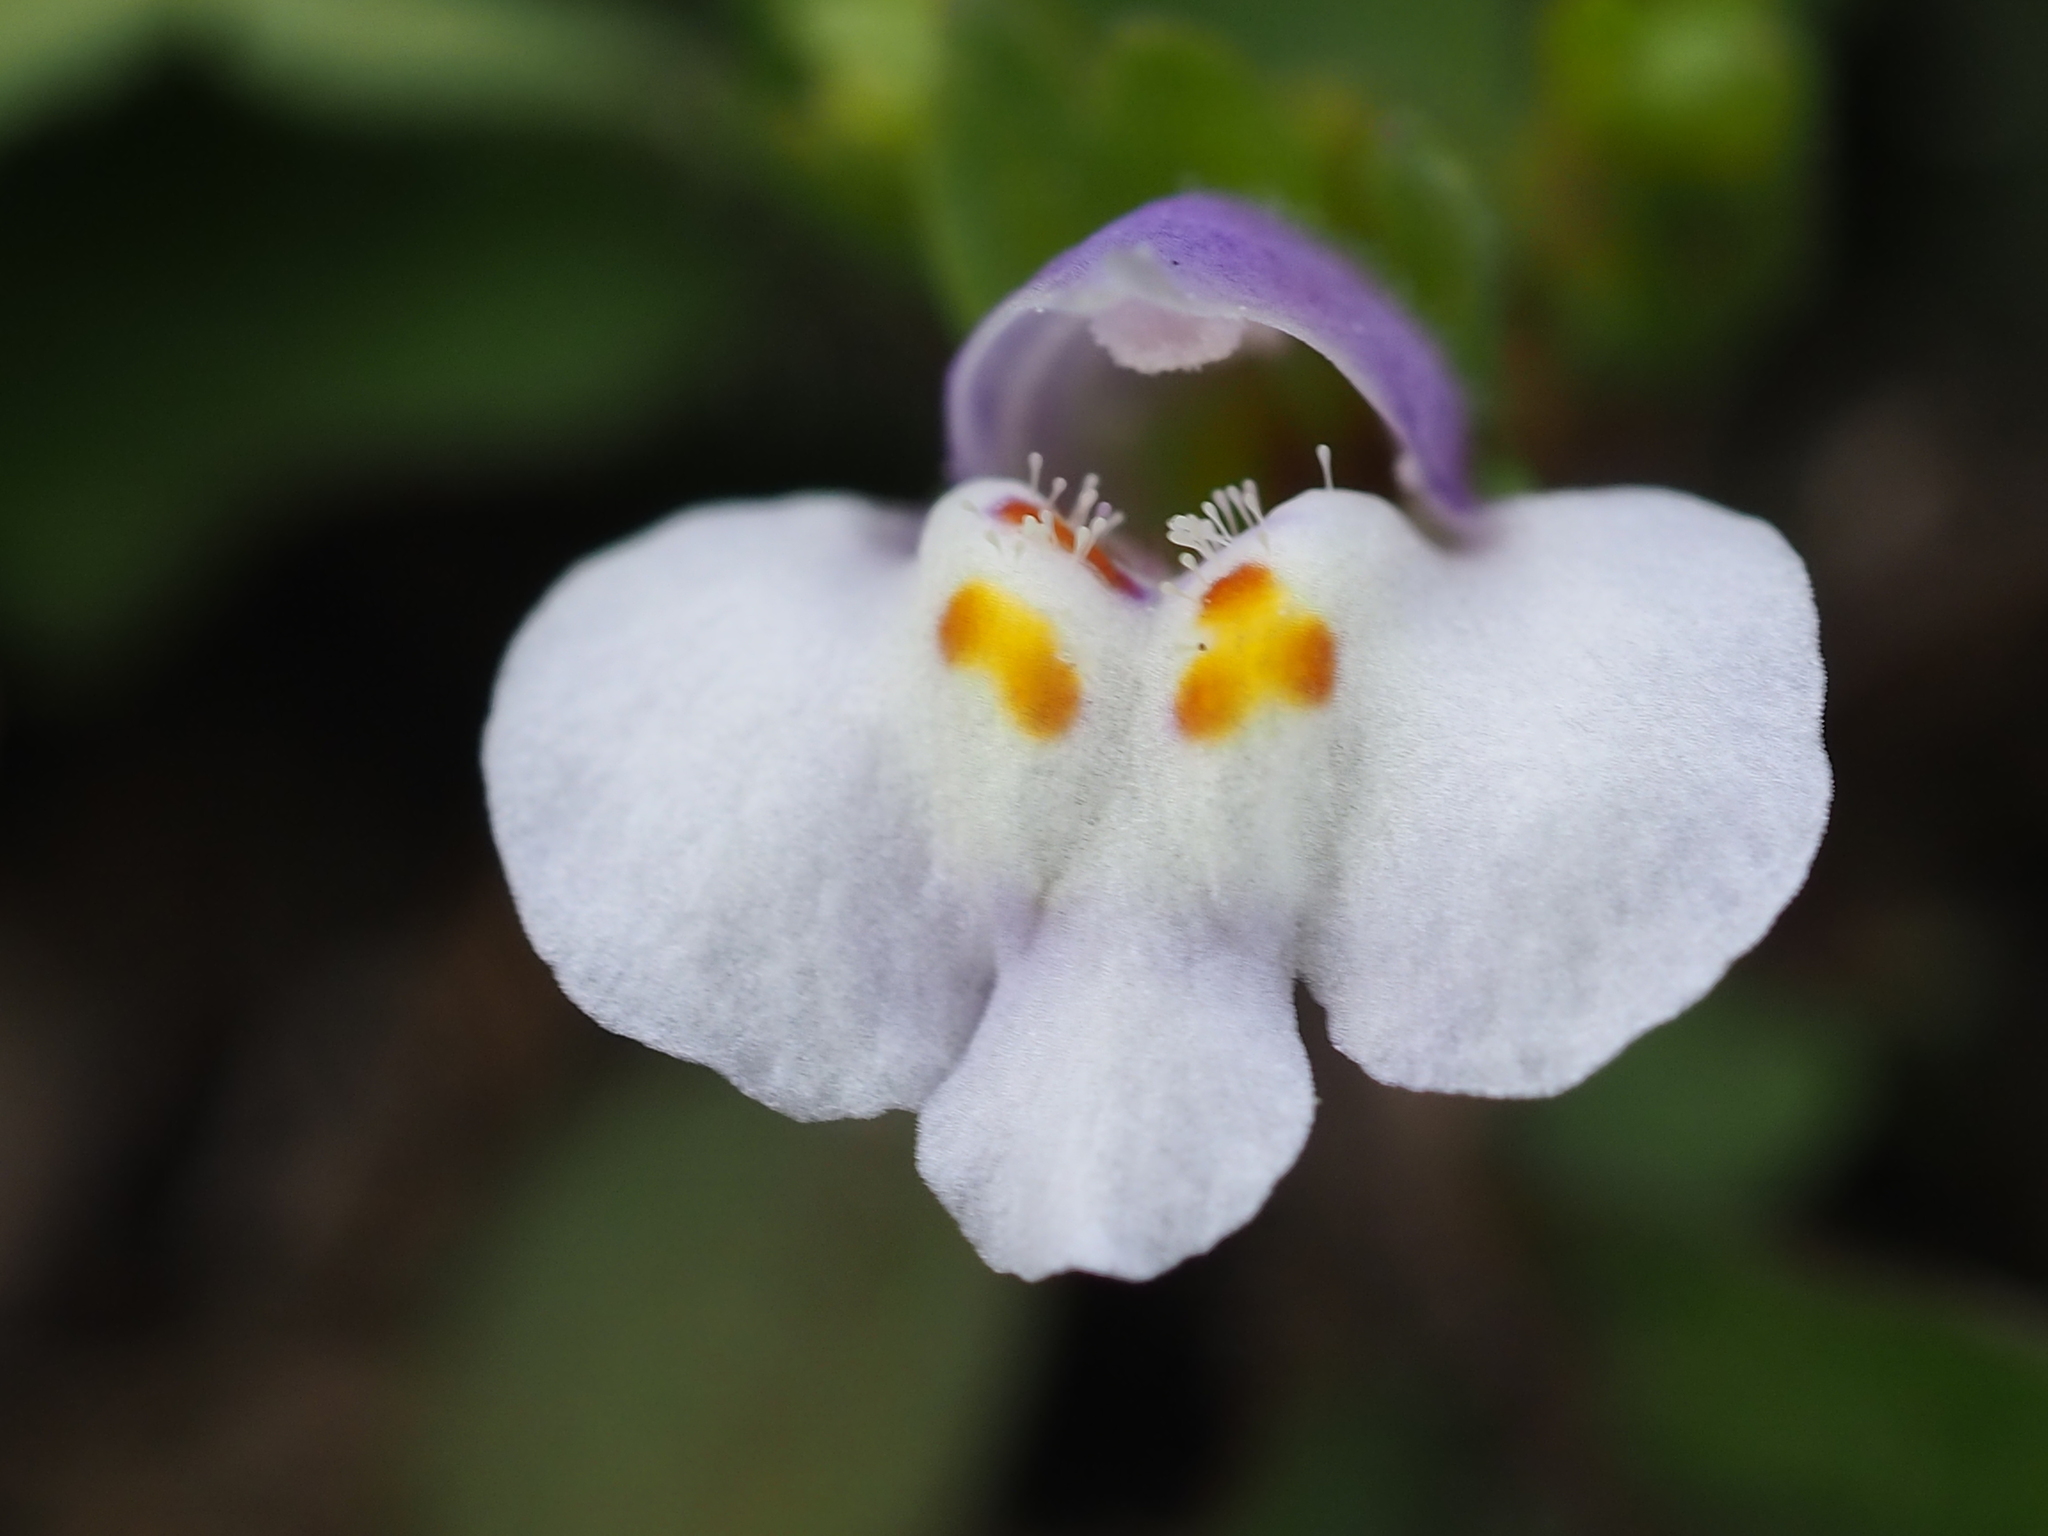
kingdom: Plantae
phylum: Tracheophyta
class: Magnoliopsida
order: Lamiales
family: Mazaceae
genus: Mazus
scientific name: Mazus pumilus
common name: Japanese mazus
